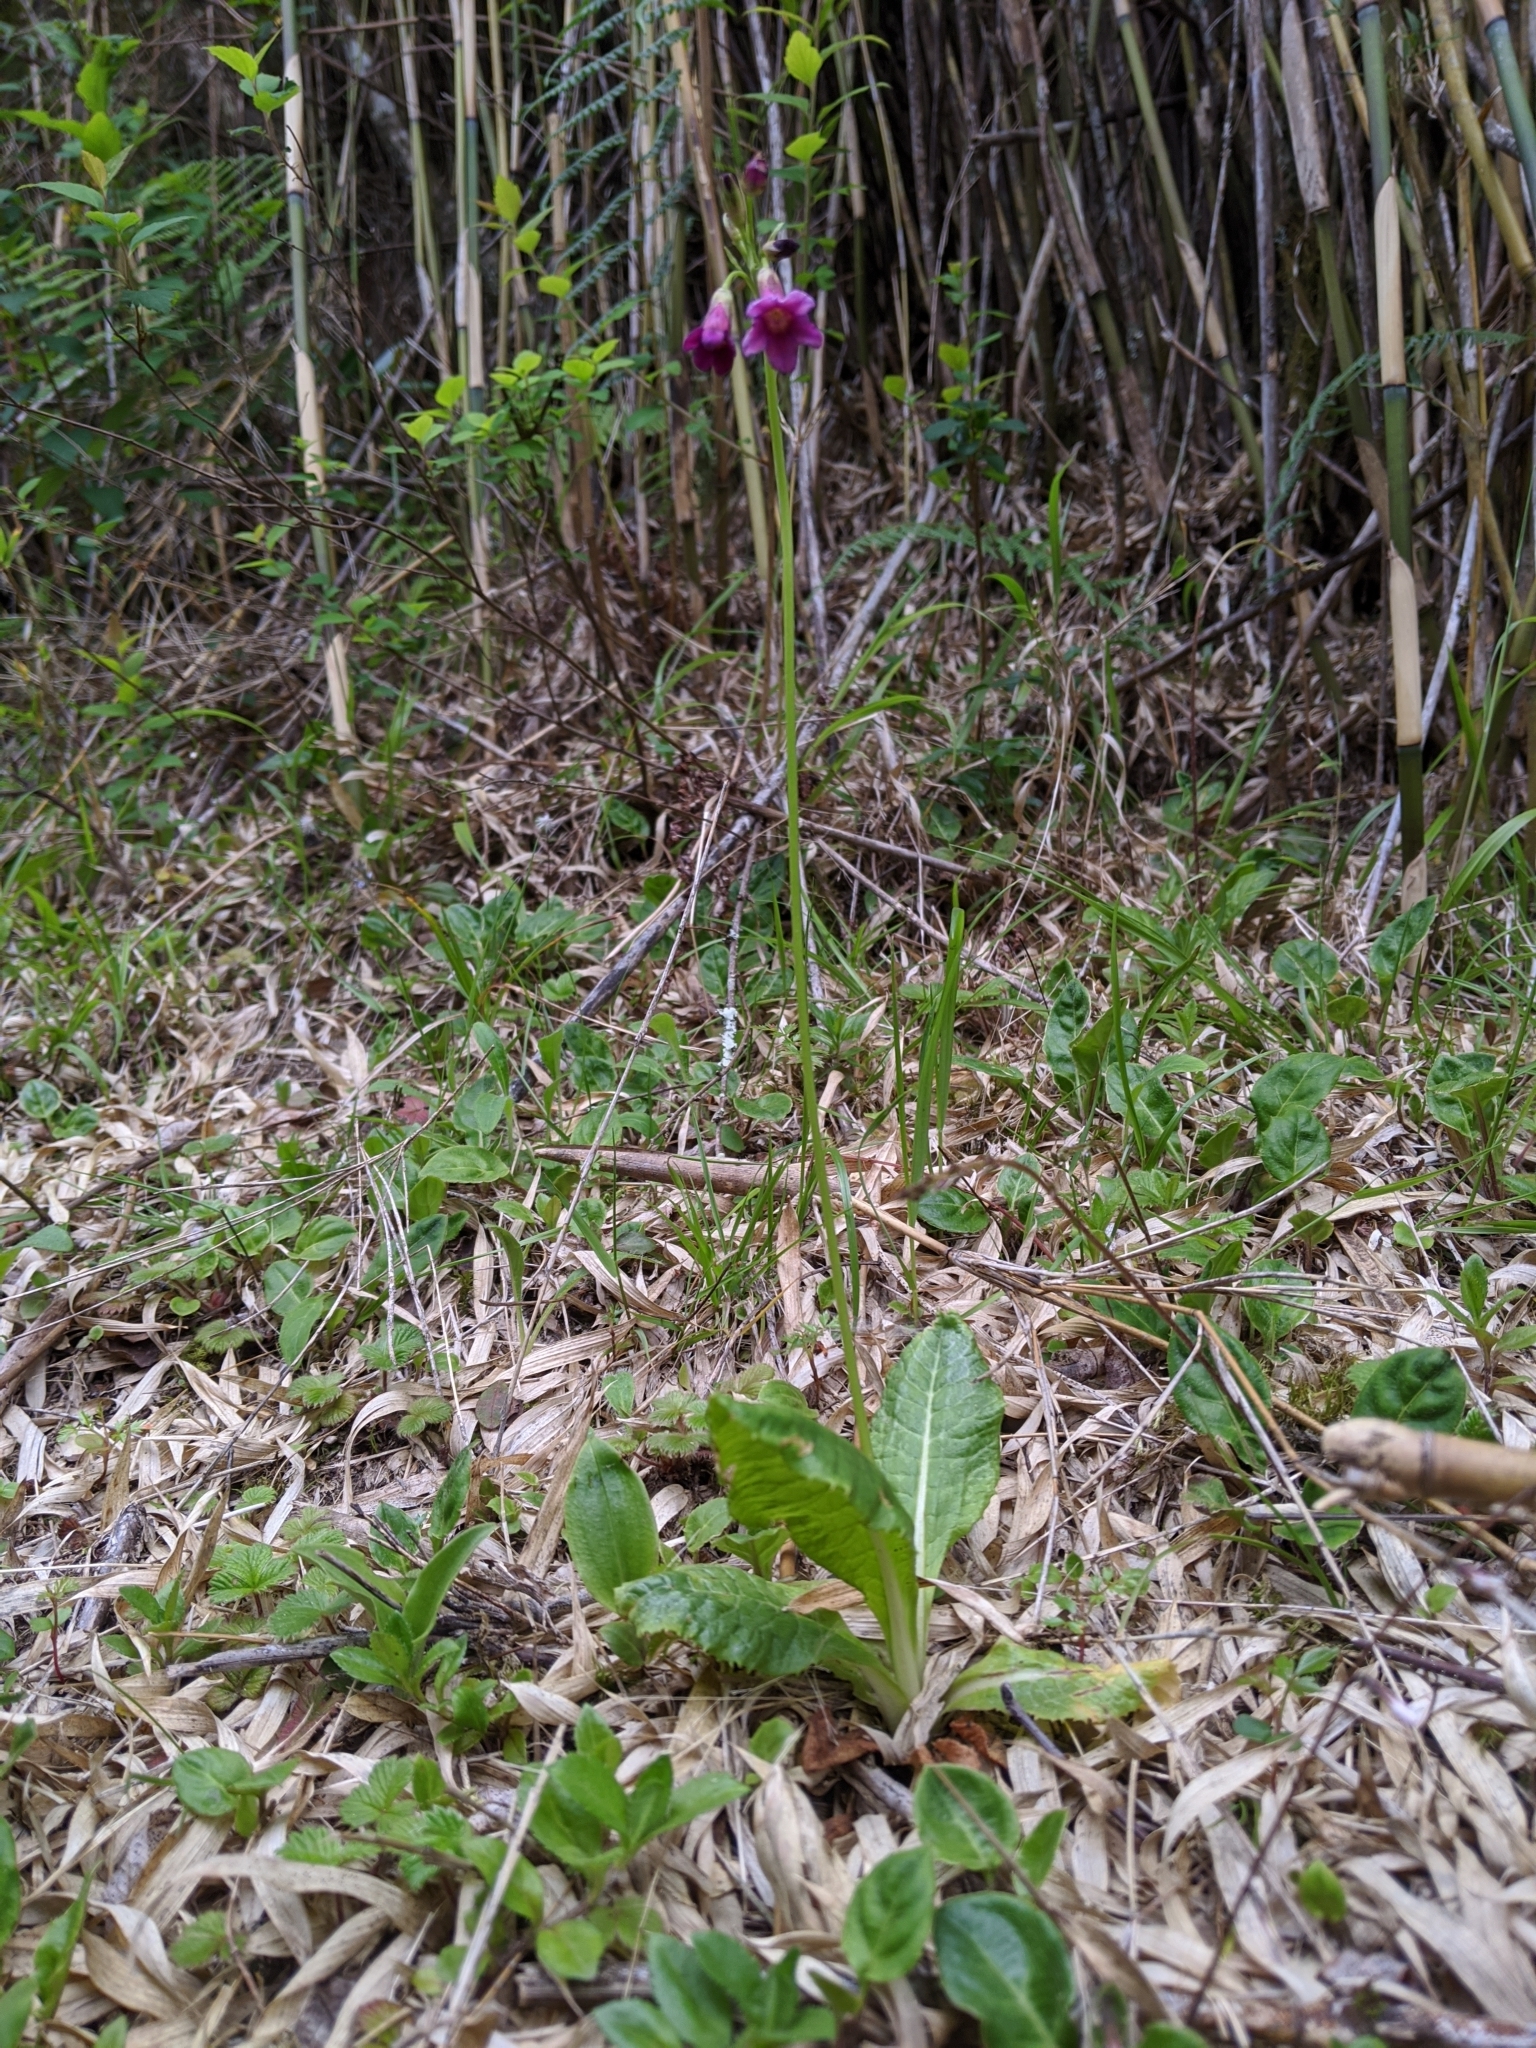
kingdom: Plantae
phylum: Tracheophyta
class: Magnoliopsida
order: Ericales
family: Primulaceae
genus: Primula
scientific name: Primula miyabeana
